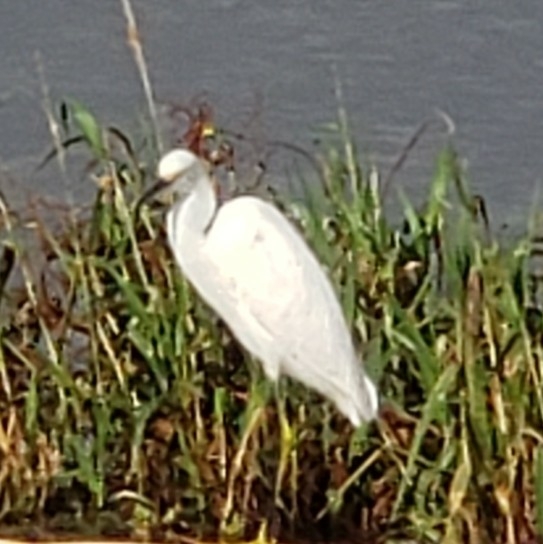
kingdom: Animalia
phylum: Chordata
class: Aves
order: Pelecaniformes
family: Ardeidae
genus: Egretta
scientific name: Egretta thula
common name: Snowy egret
